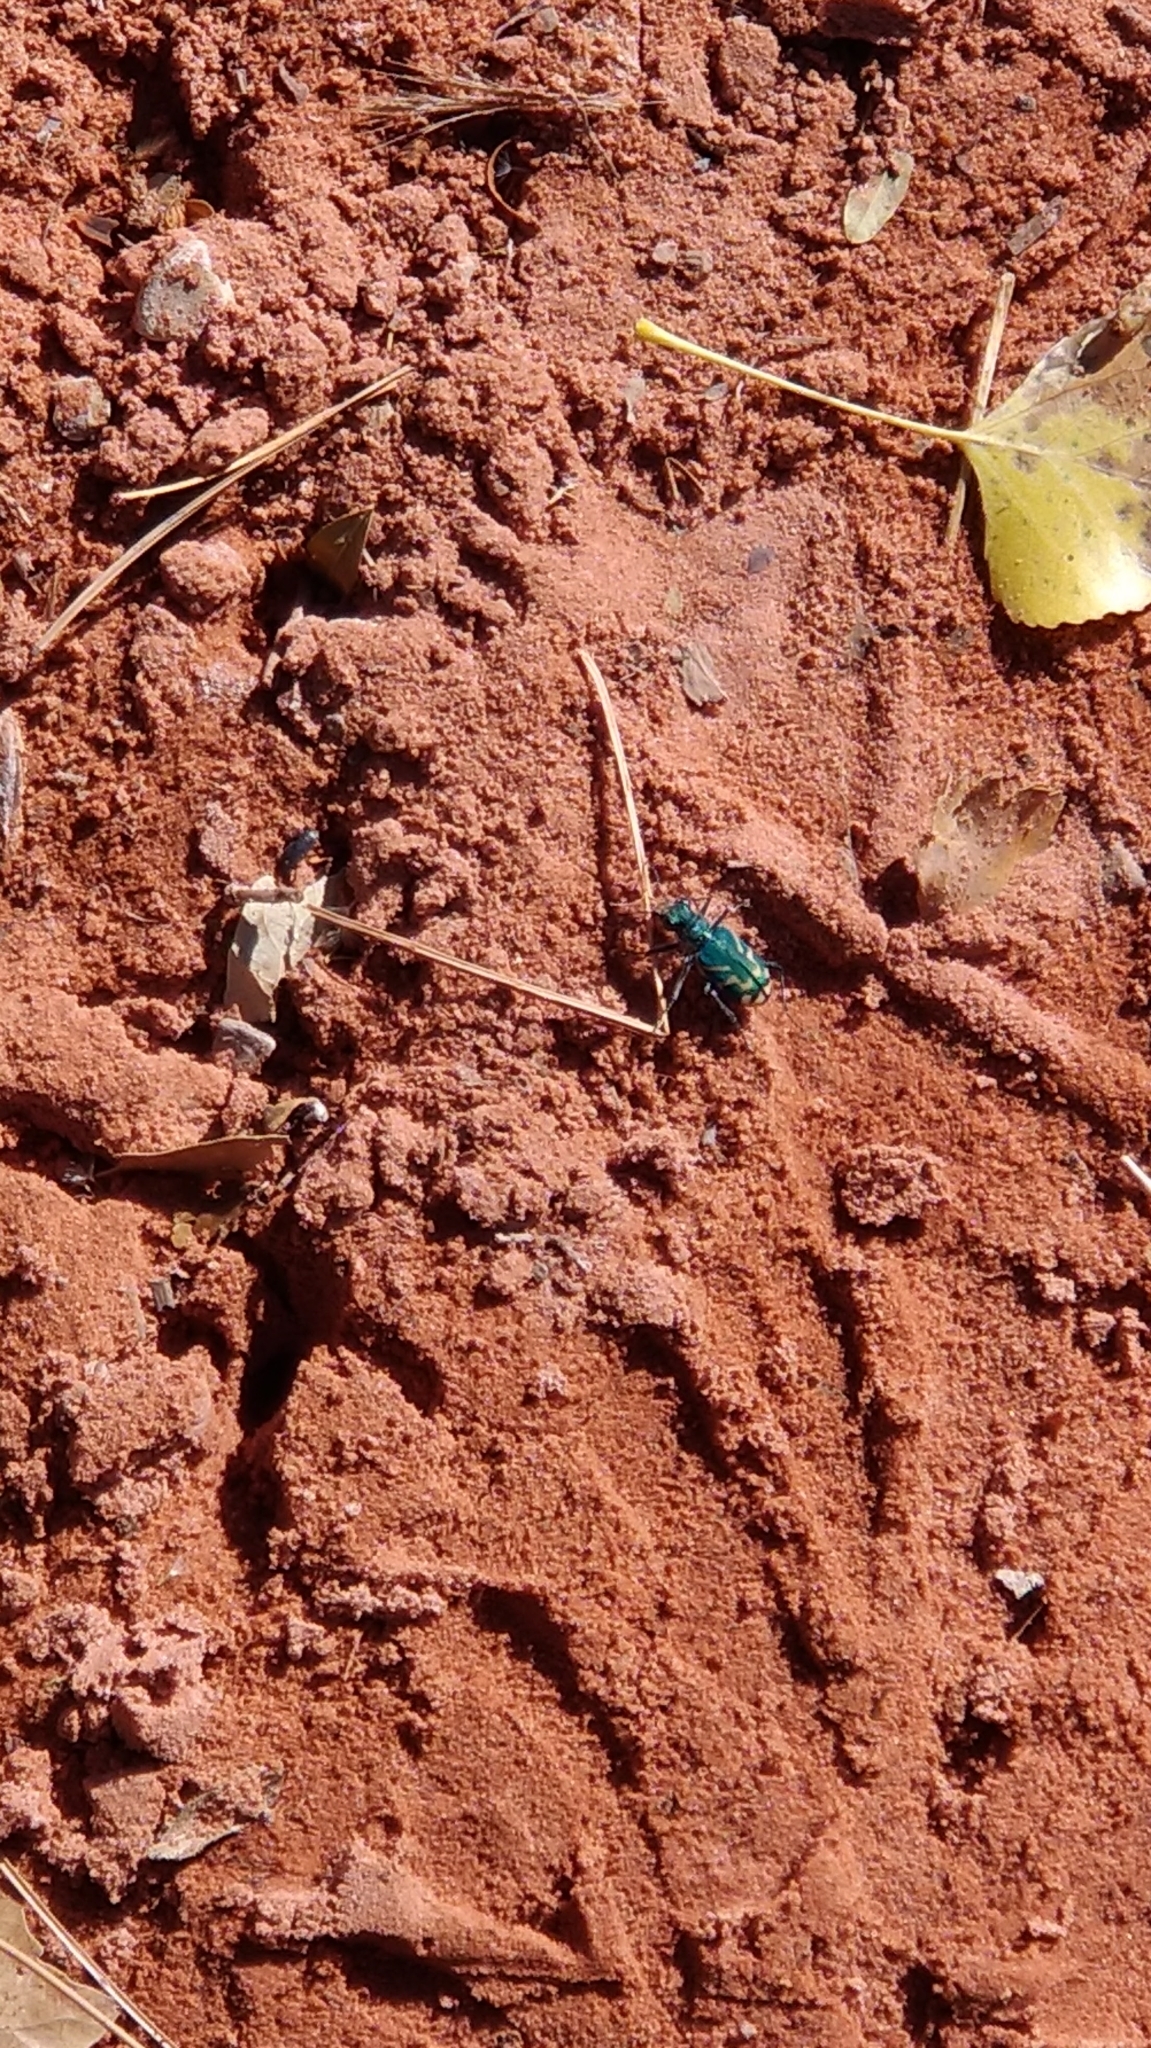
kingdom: Animalia
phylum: Arthropoda
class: Insecta
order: Coleoptera
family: Carabidae
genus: Cicindela
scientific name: Cicindela tranquebarica
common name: Oblique-lined tiger beetle
